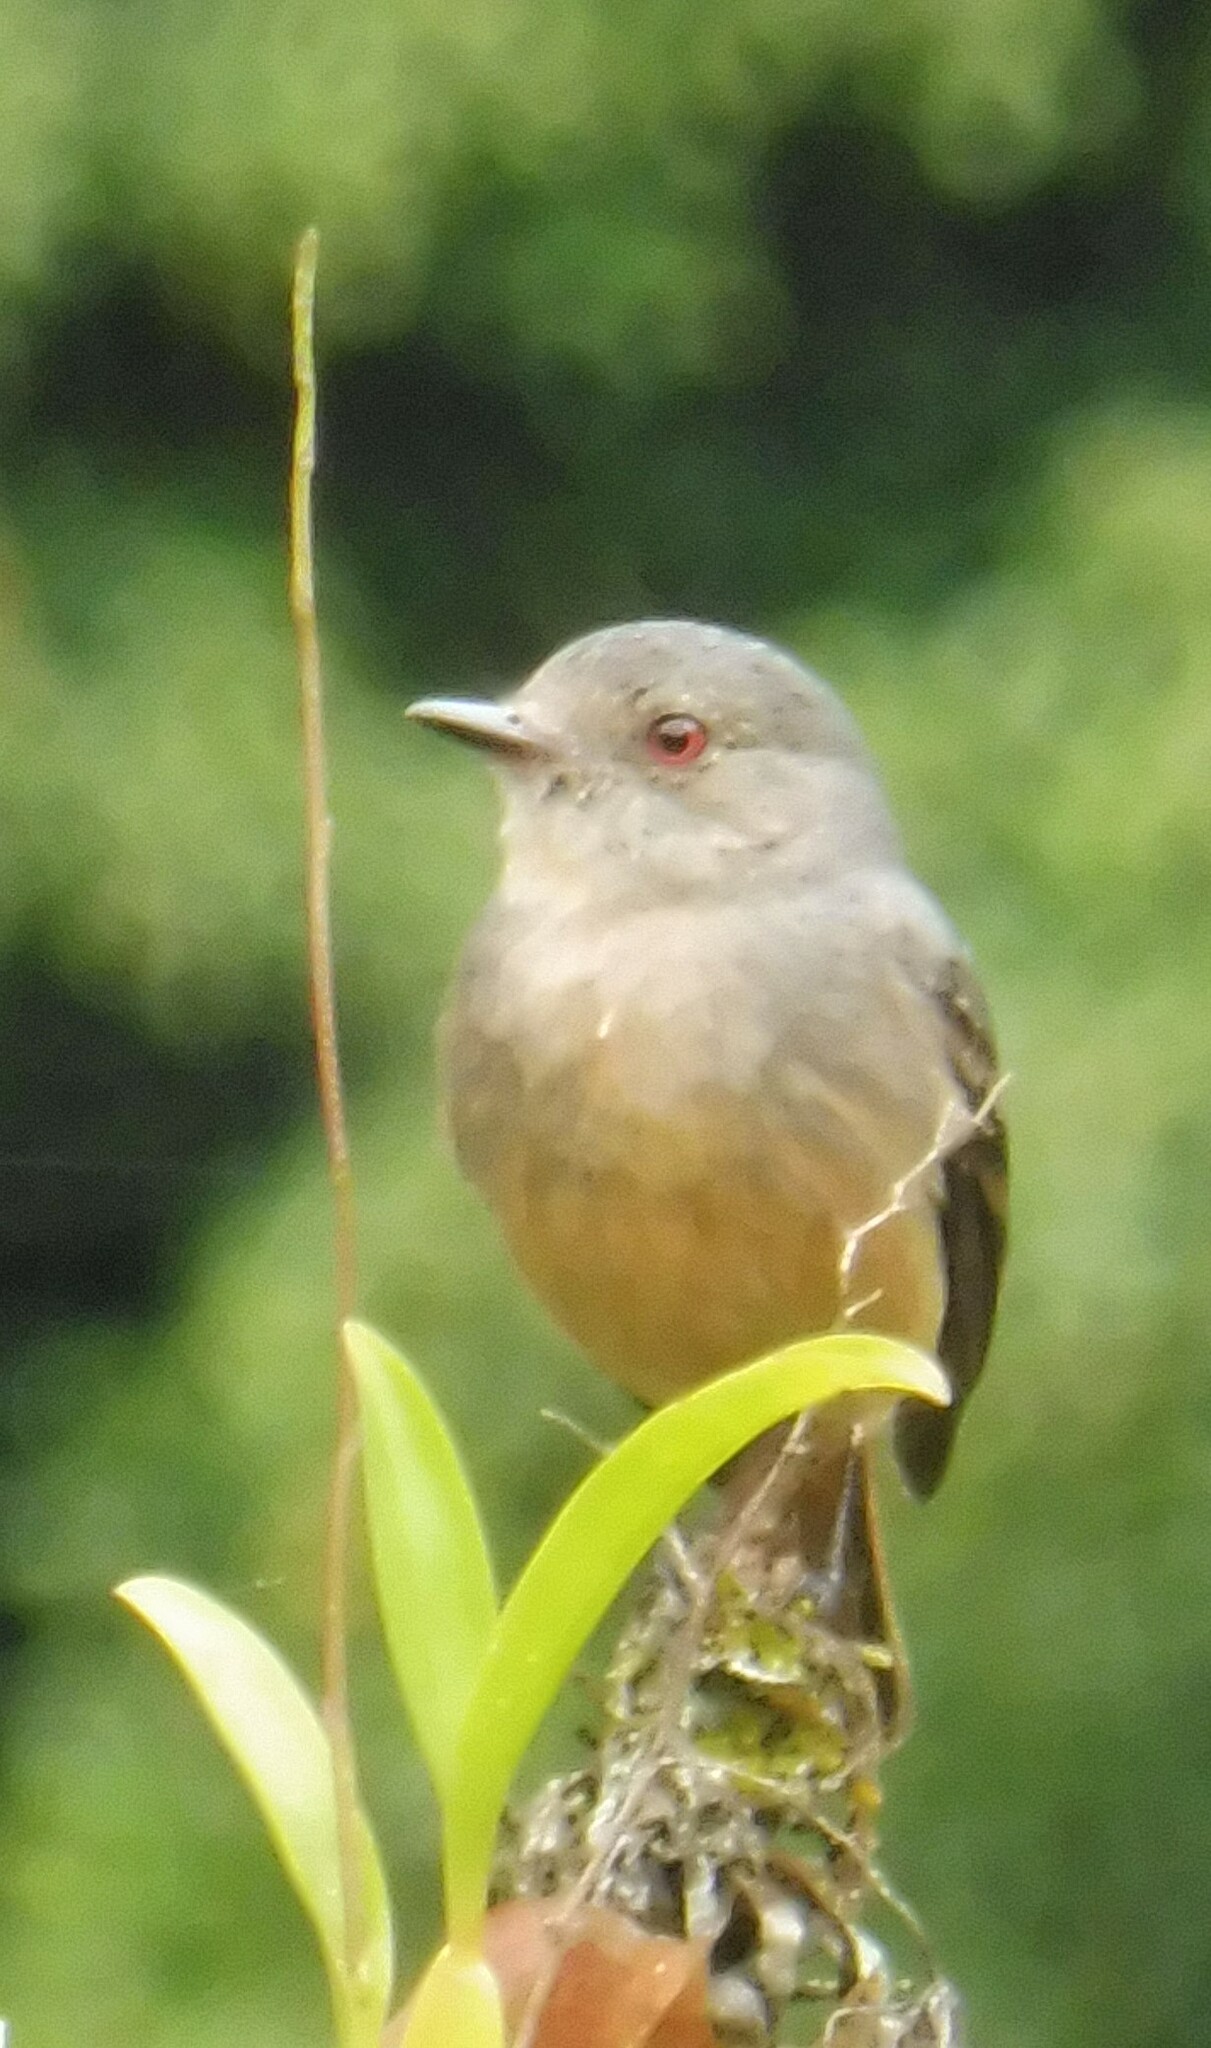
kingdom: Animalia
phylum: Chordata
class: Aves
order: Passeriformes
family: Tyrannidae
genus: Knipolegus
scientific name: Knipolegus poecilurus
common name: Rufous-tailed tyrant
